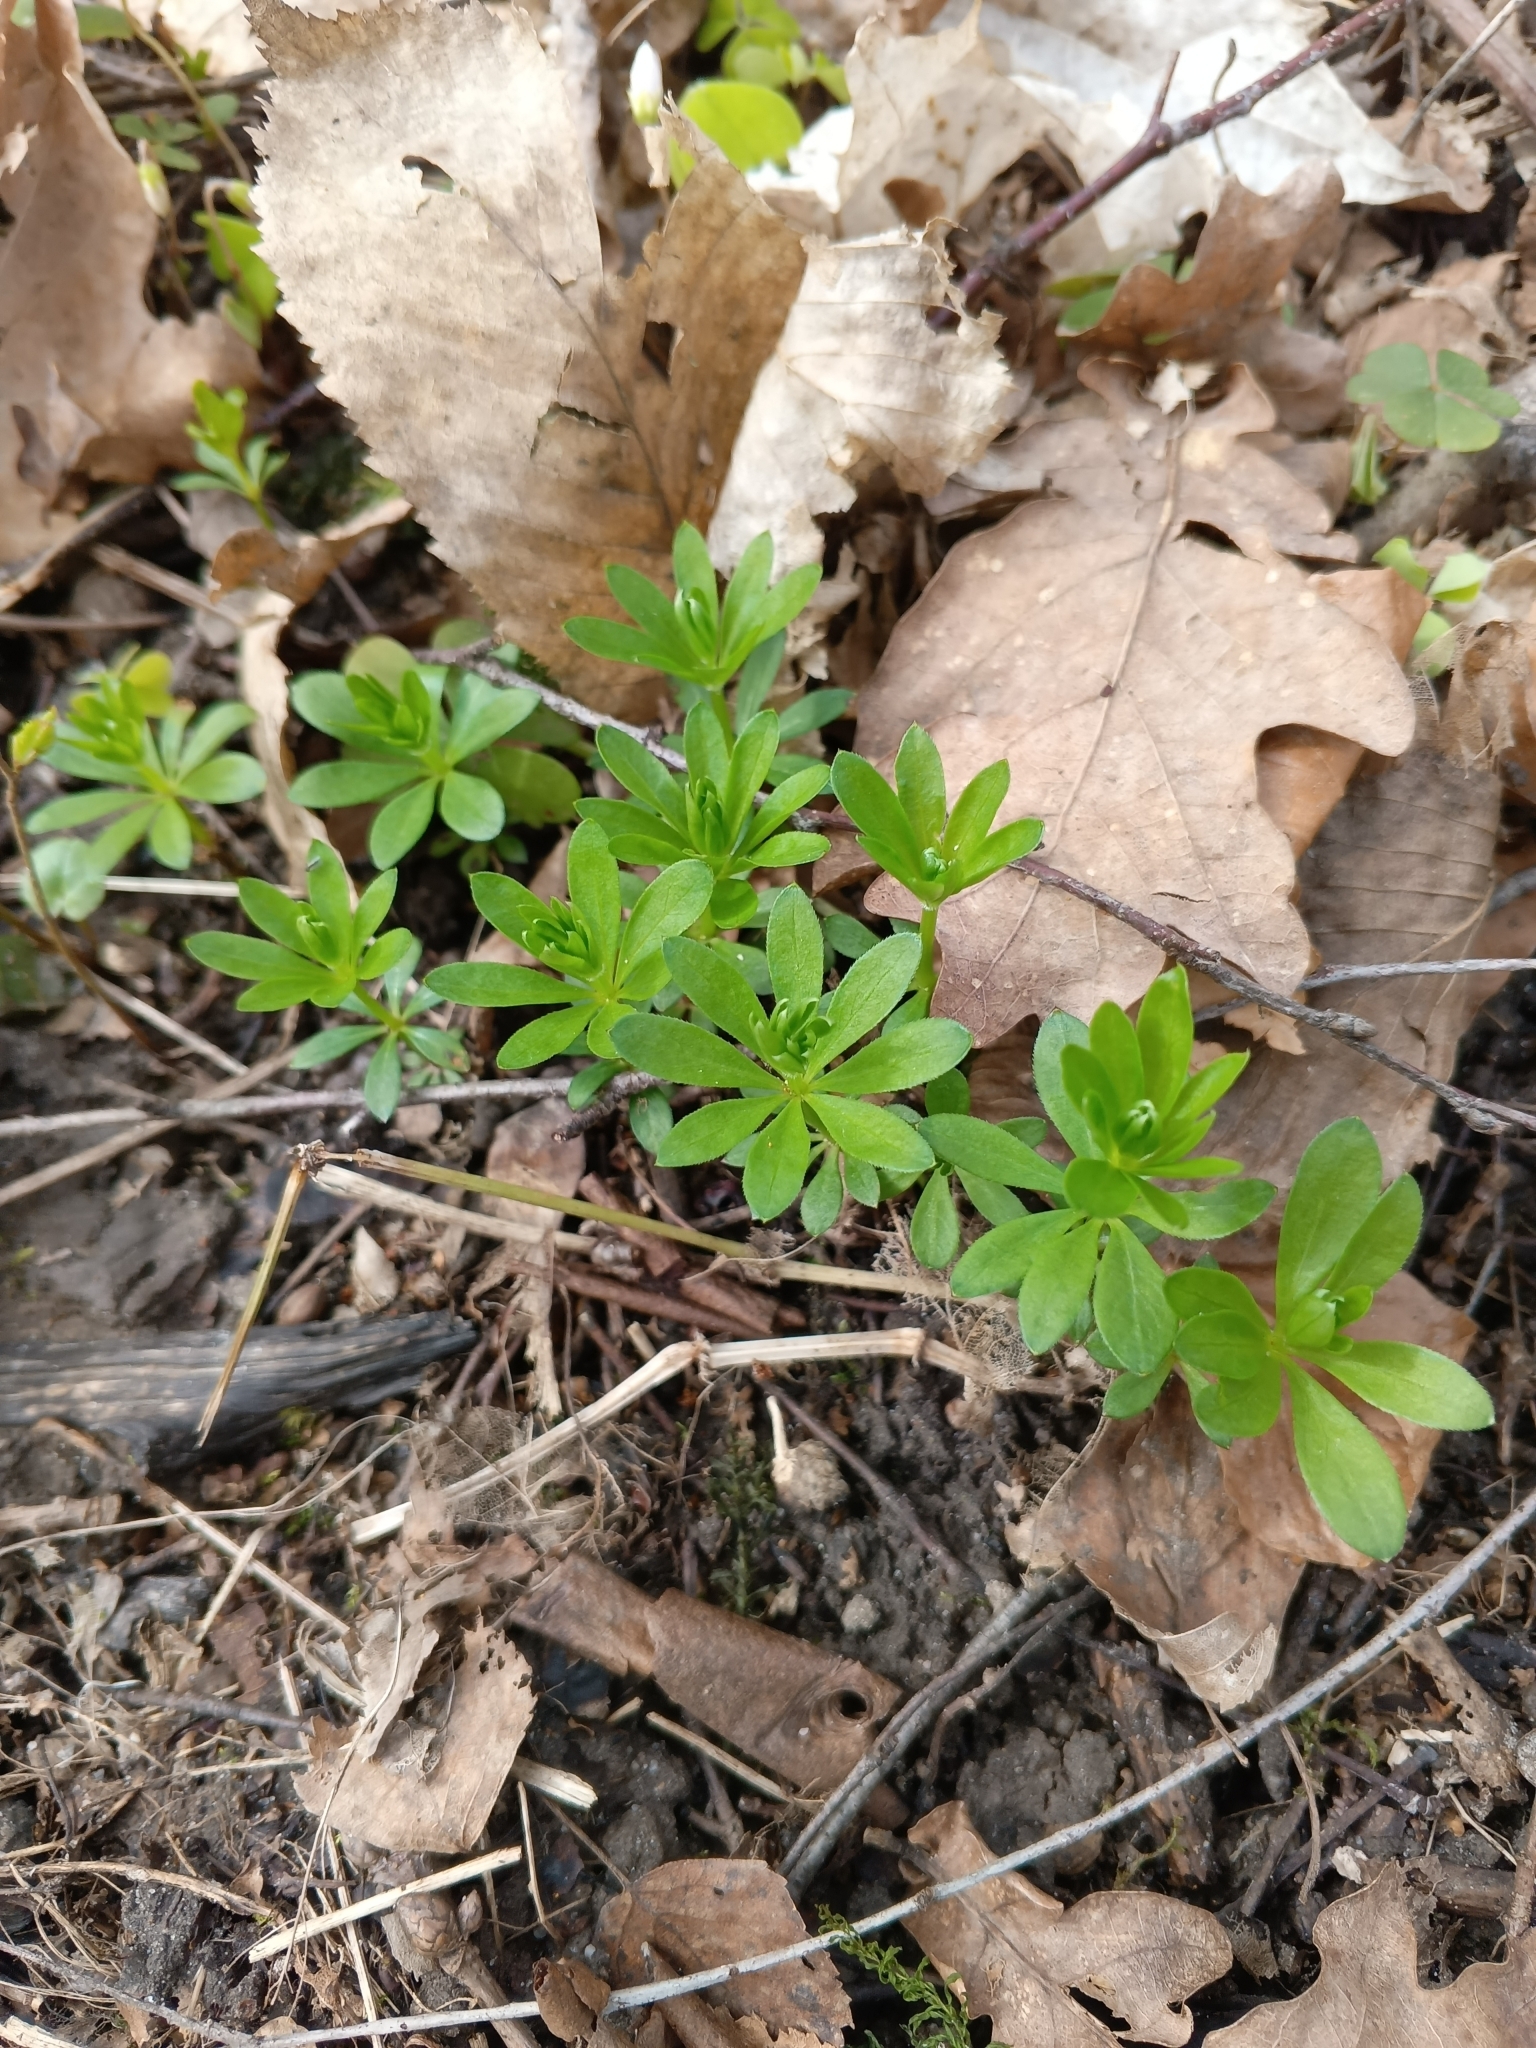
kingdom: Plantae
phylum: Tracheophyta
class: Magnoliopsida
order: Gentianales
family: Rubiaceae
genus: Galium
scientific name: Galium odoratum
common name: Sweet woodruff
